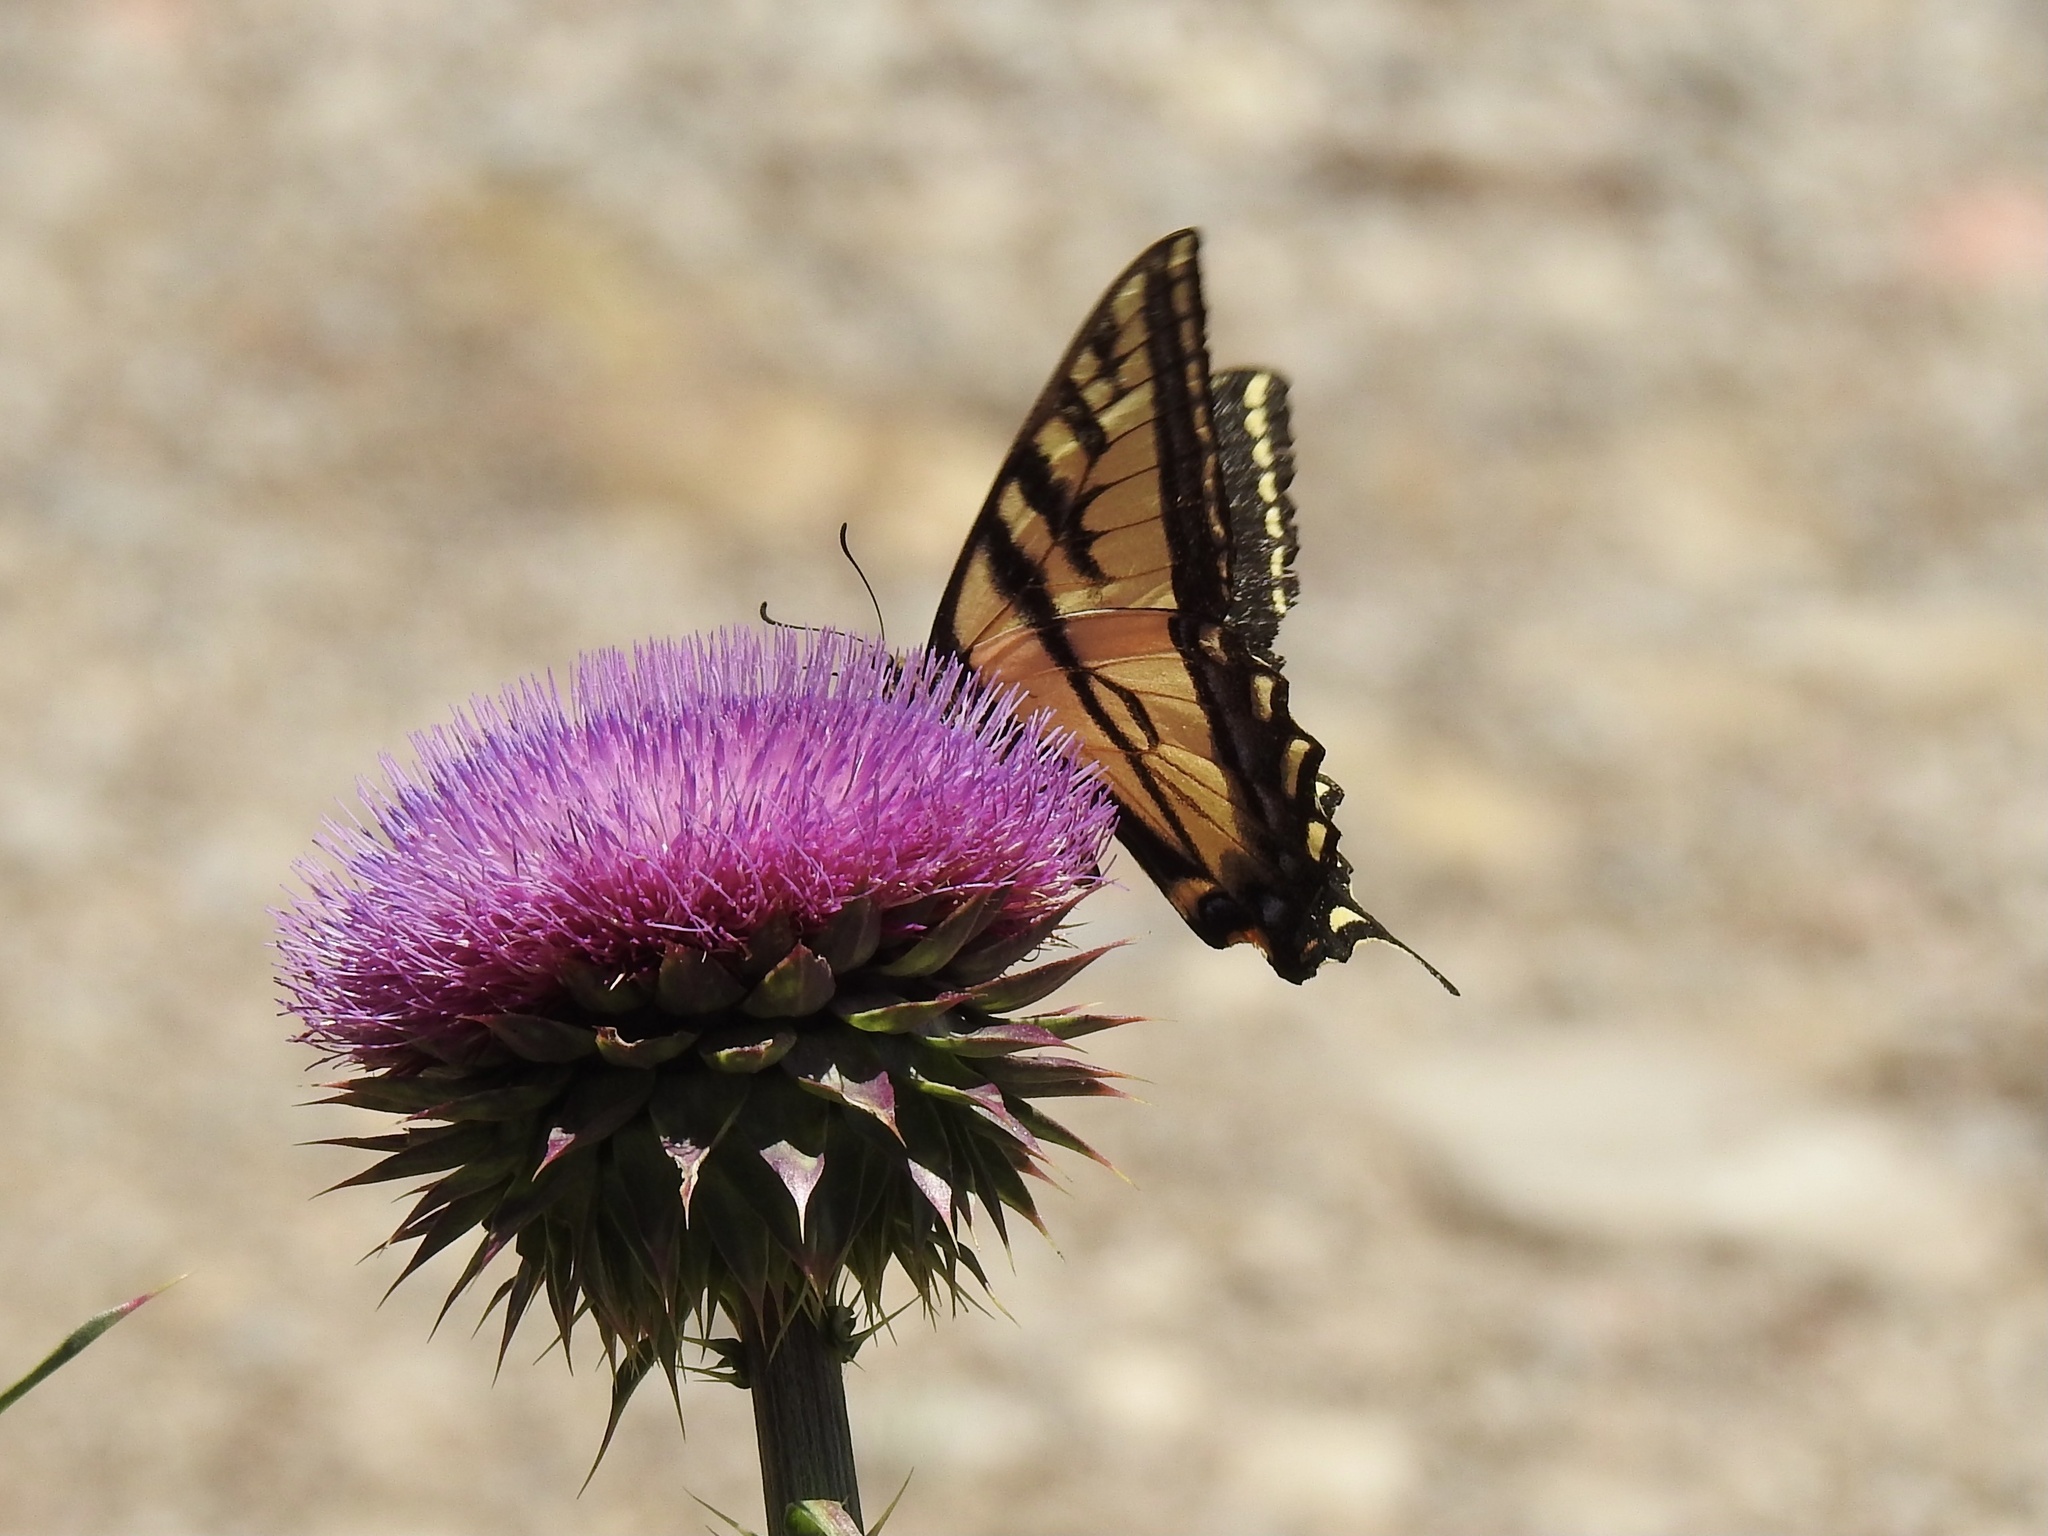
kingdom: Animalia
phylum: Arthropoda
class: Insecta
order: Lepidoptera
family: Papilionidae
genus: Papilio
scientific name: Papilio rutulus
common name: Western tiger swallowtail
